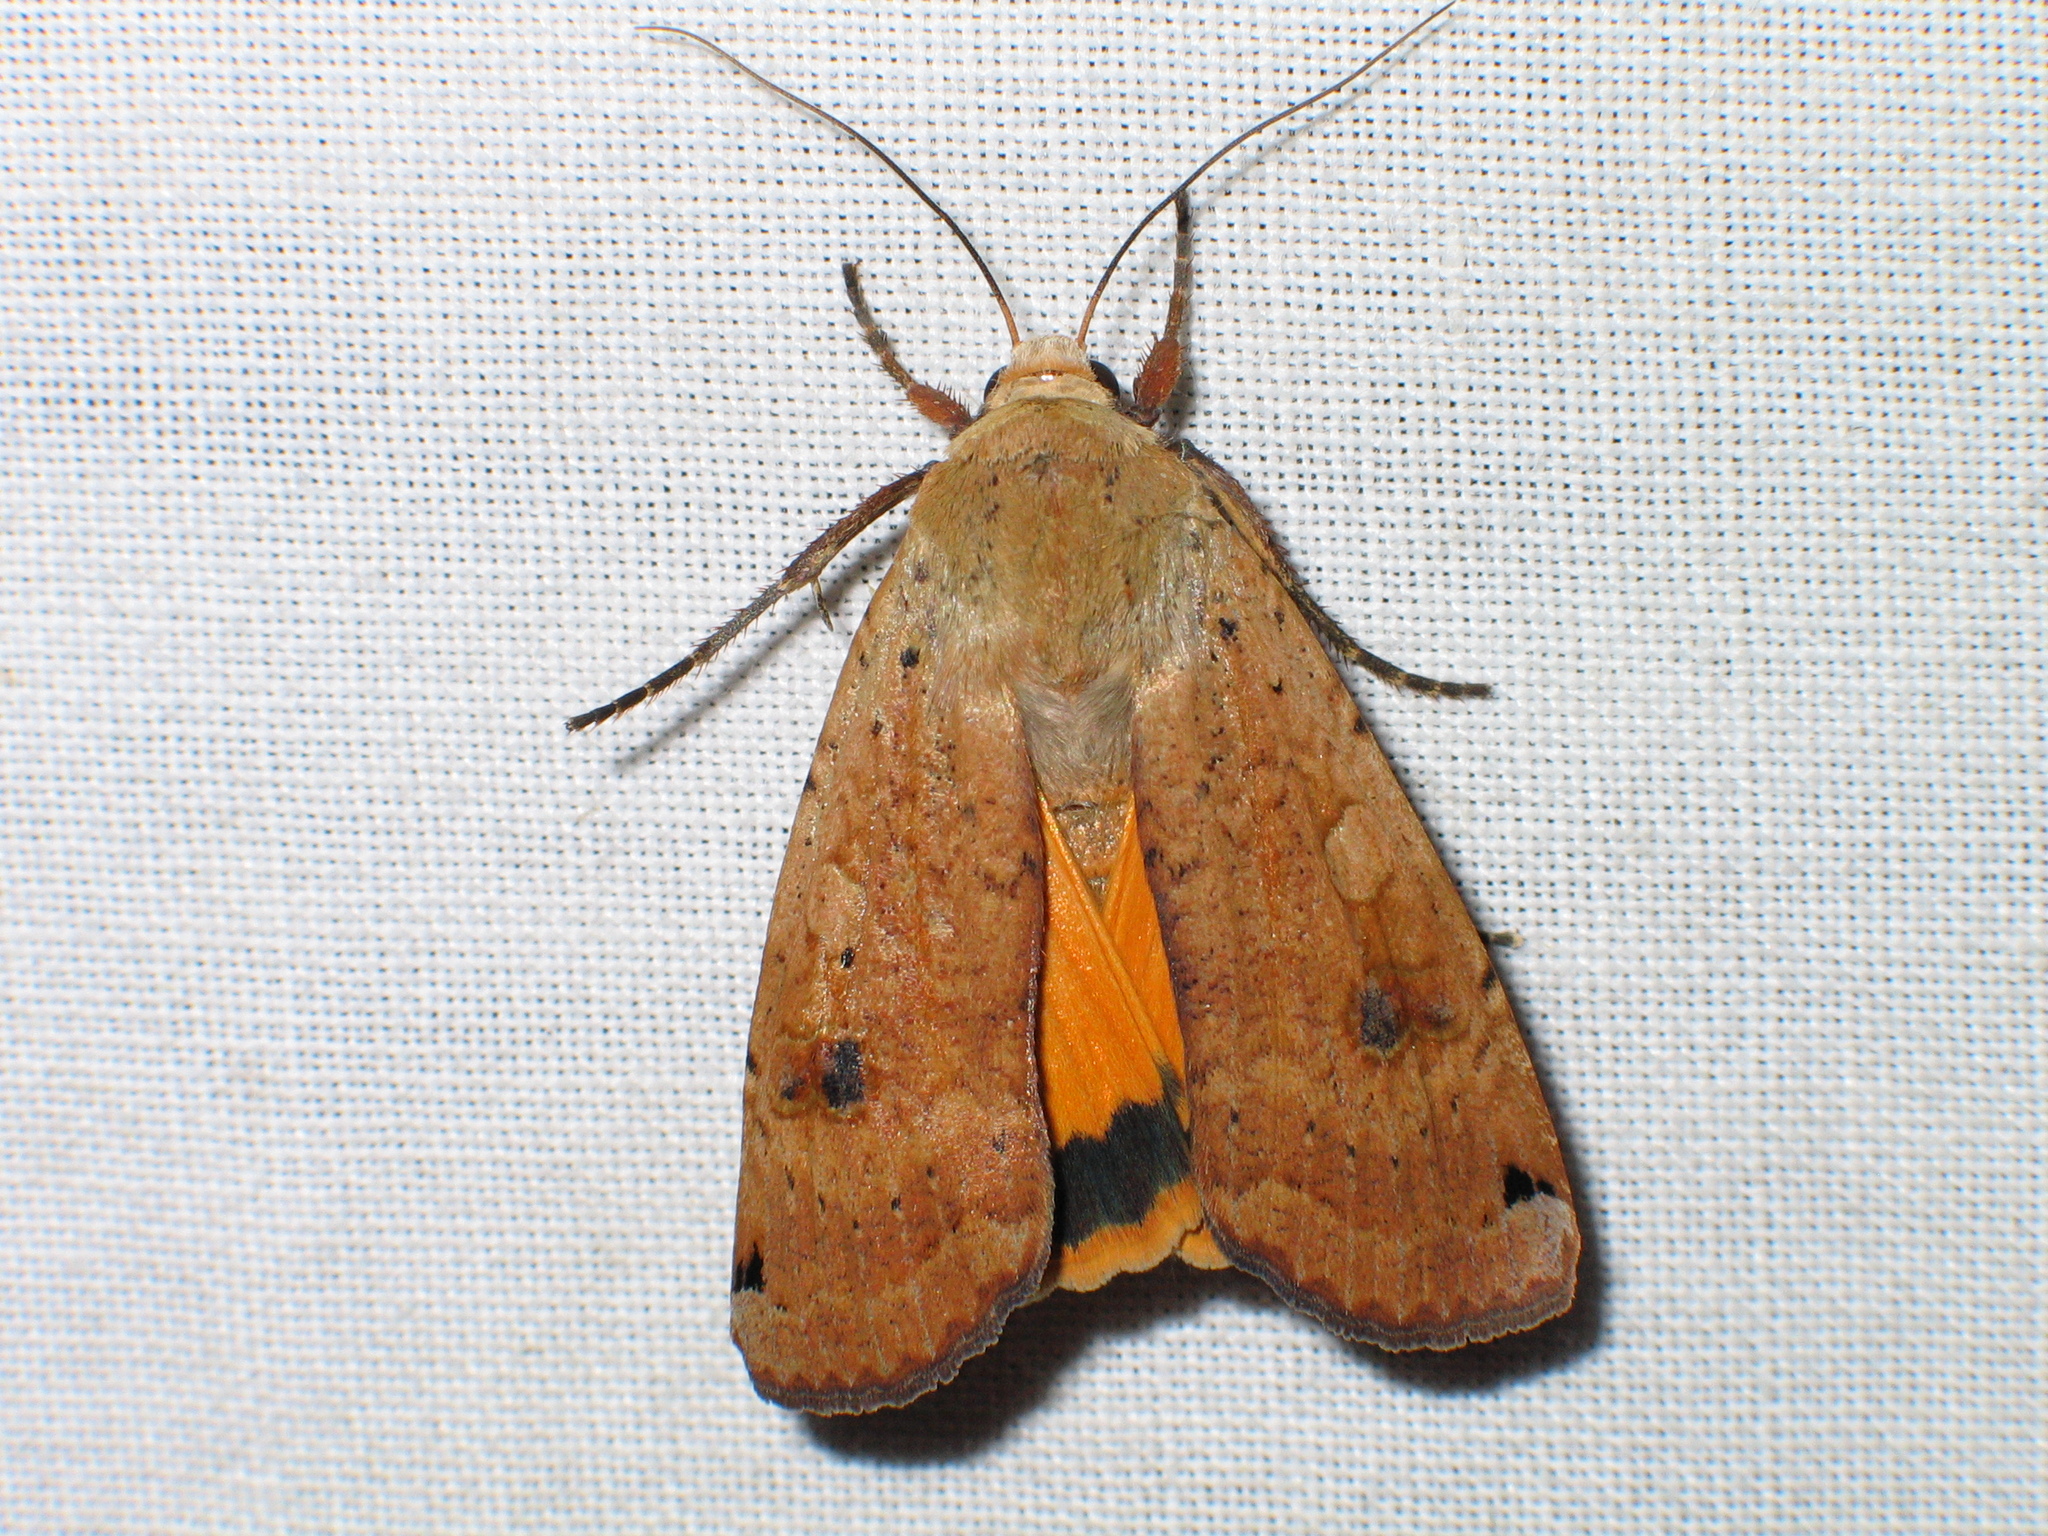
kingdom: Animalia
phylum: Arthropoda
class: Insecta
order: Lepidoptera
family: Noctuidae
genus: Noctua
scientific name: Noctua pronuba
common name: Large yellow underwing
